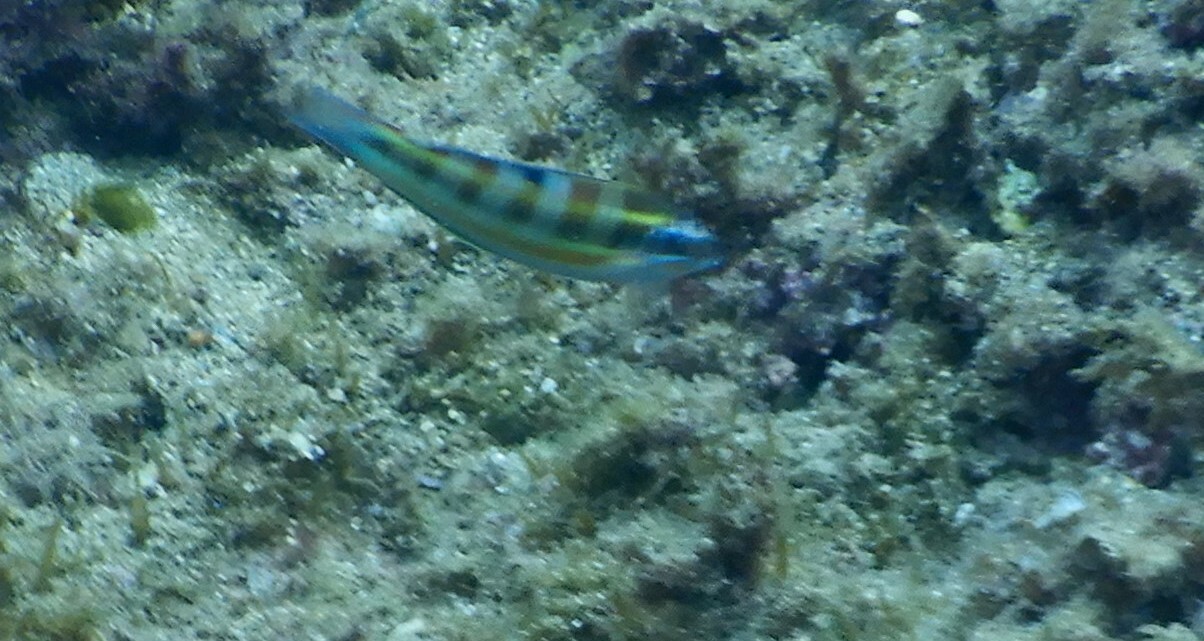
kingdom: Animalia
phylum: Chordata
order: Perciformes
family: Labridae
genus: Thalassoma
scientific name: Thalassoma pavo
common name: Ornate wrasse
